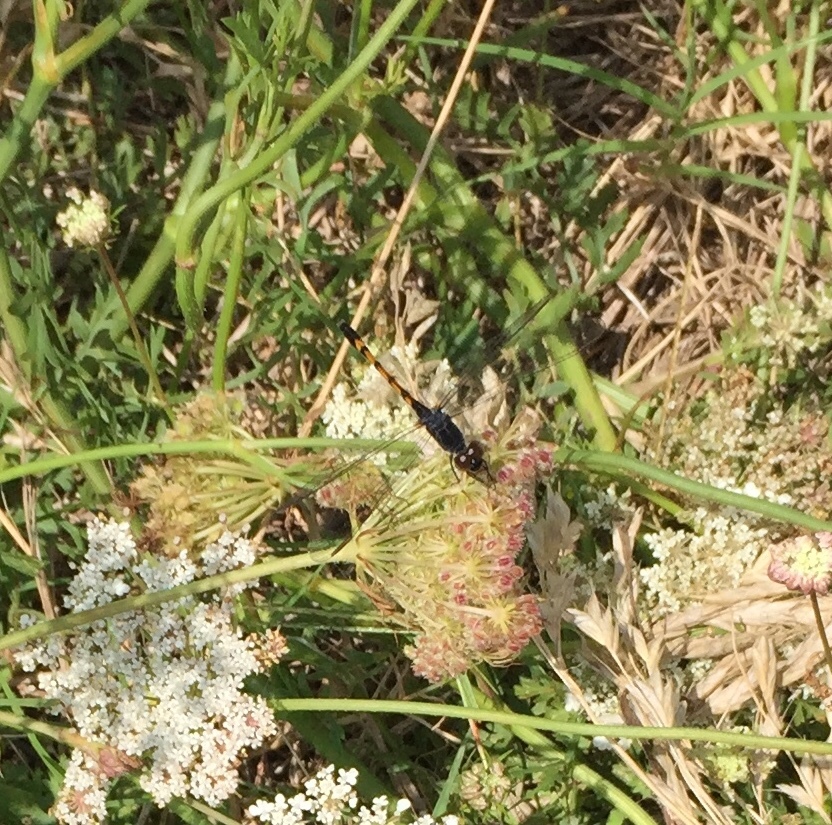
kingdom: Animalia
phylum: Arthropoda
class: Insecta
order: Odonata
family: Libellulidae
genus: Erythrodiplax
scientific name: Erythrodiplax berenice
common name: Seaside dragonlet
